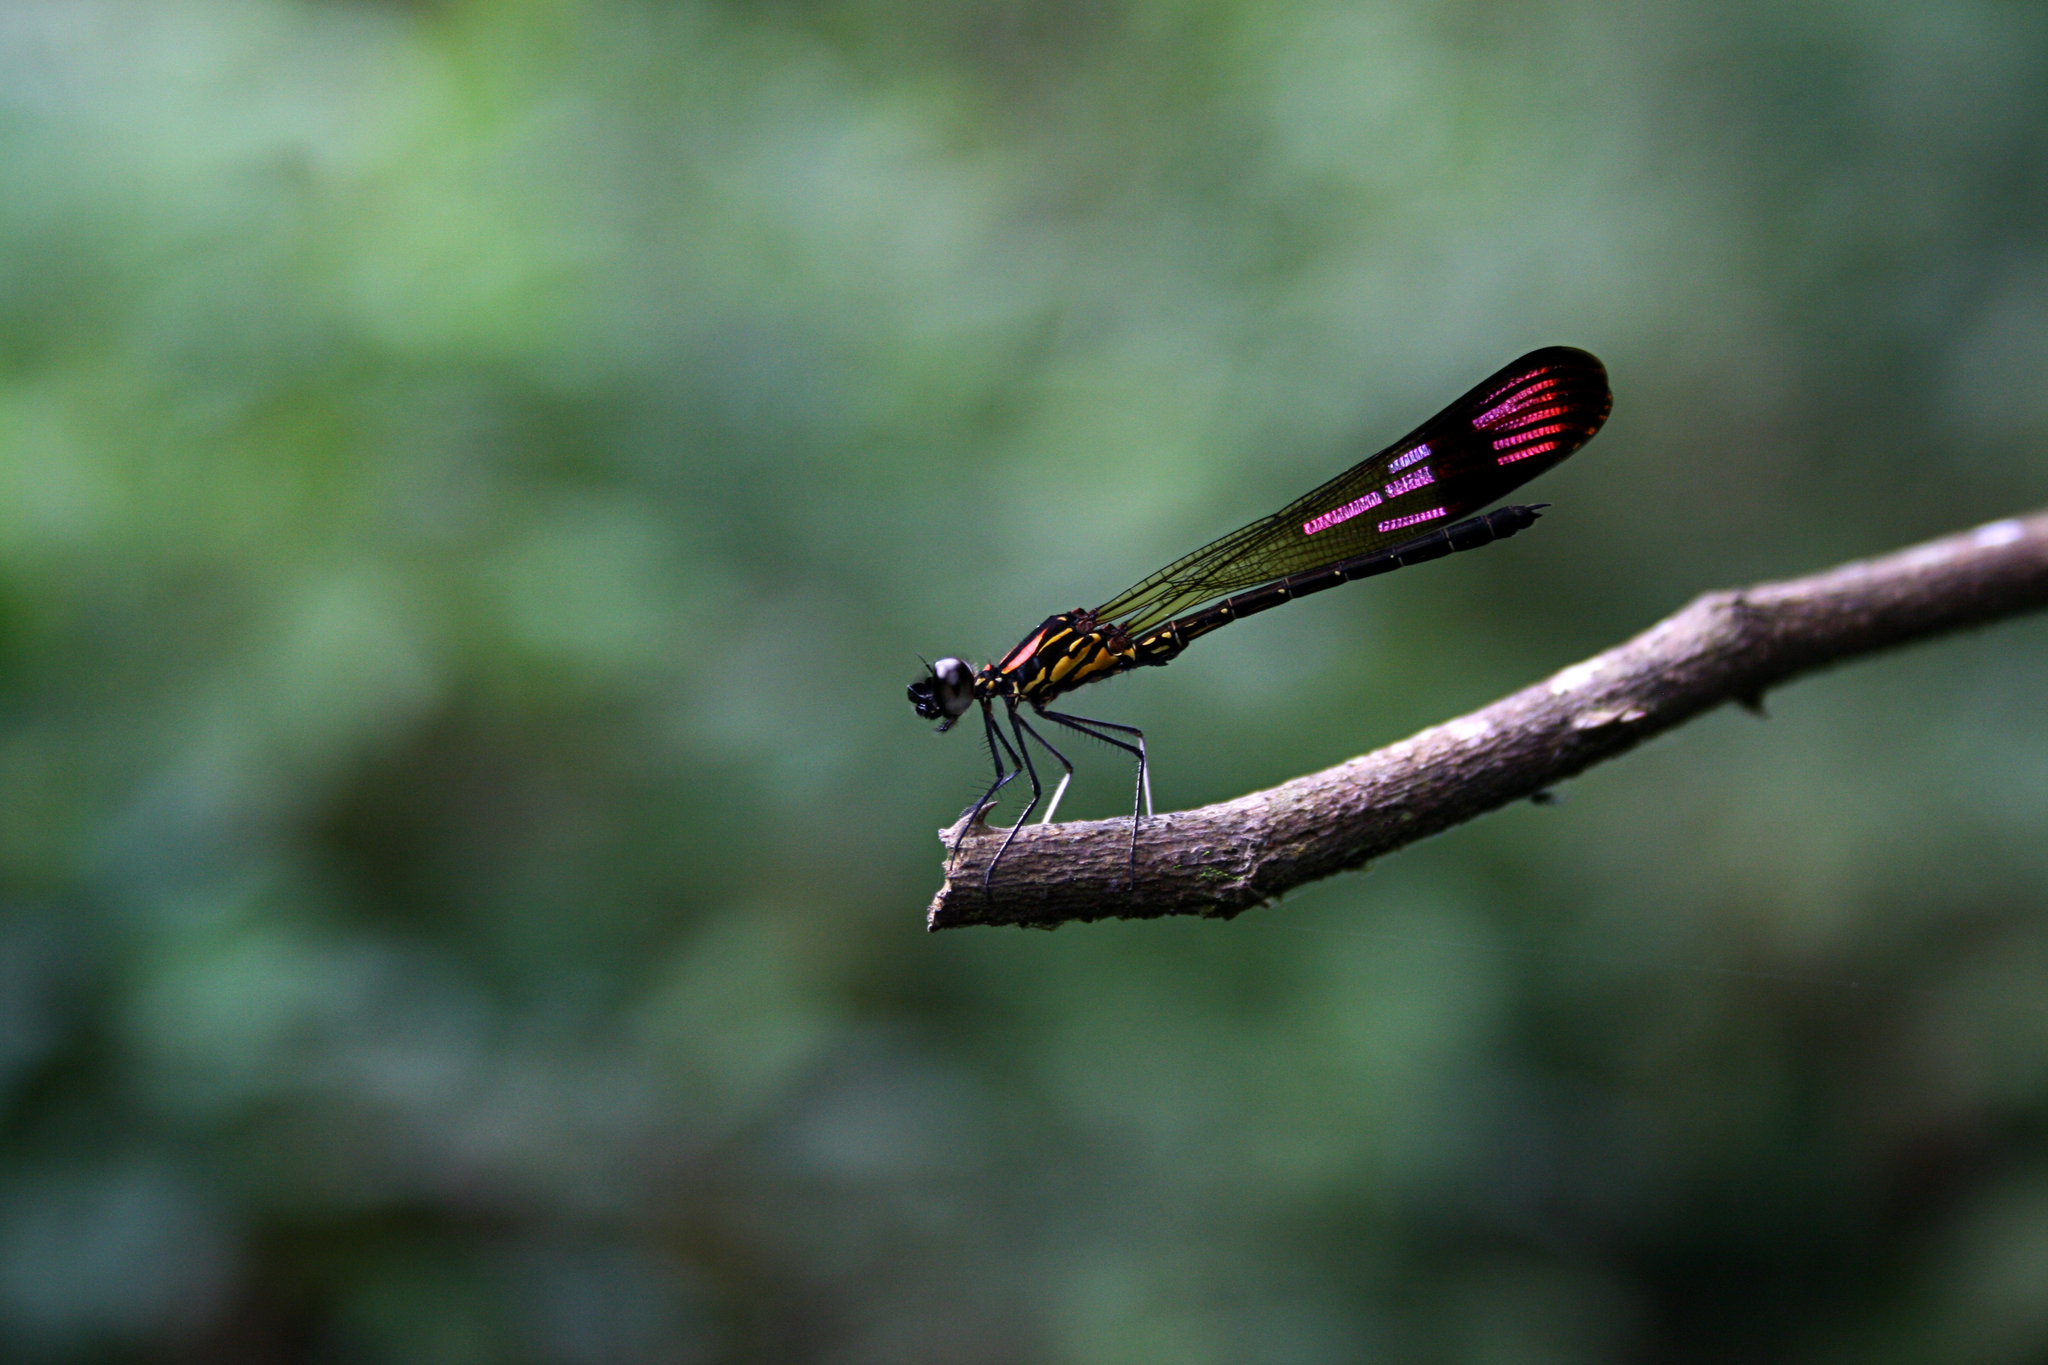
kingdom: Animalia
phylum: Arthropoda
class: Insecta
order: Odonata
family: Chlorocyphidae
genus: Heliocypha
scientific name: Heliocypha bisignata
